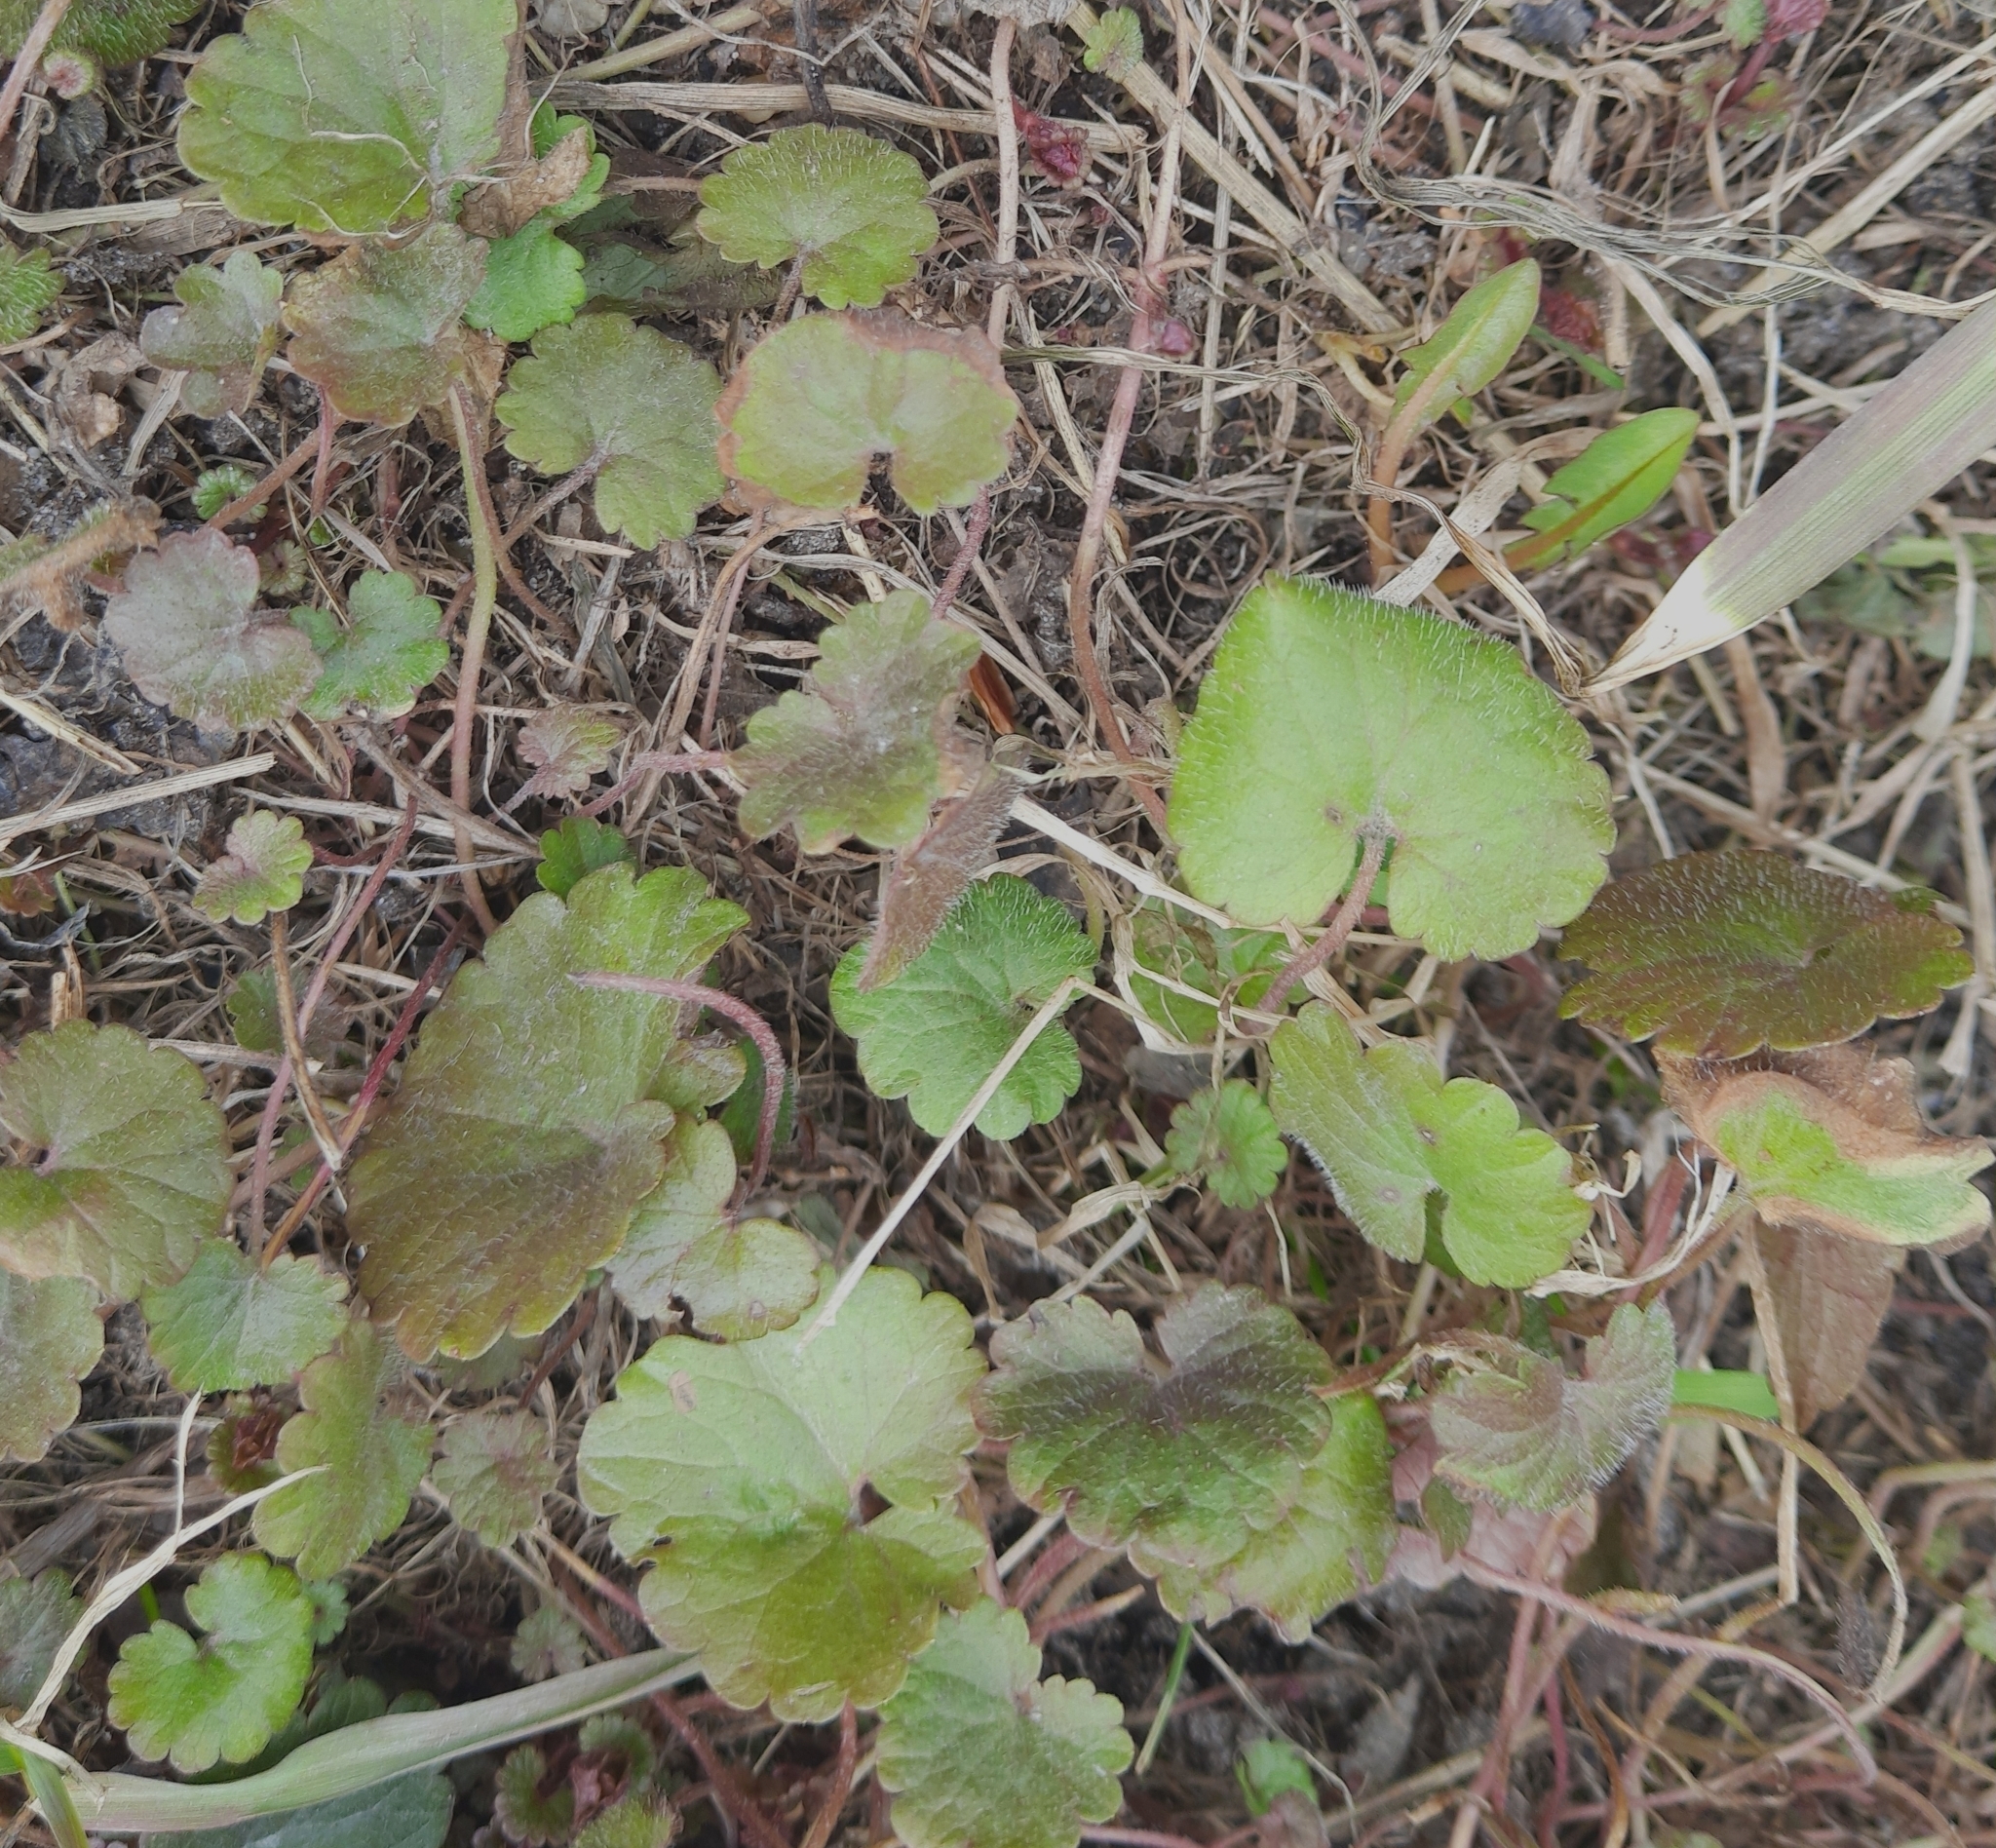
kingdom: Plantae
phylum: Tracheophyta
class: Magnoliopsida
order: Lamiales
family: Lamiaceae
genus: Glechoma
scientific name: Glechoma hederacea
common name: Ground ivy
